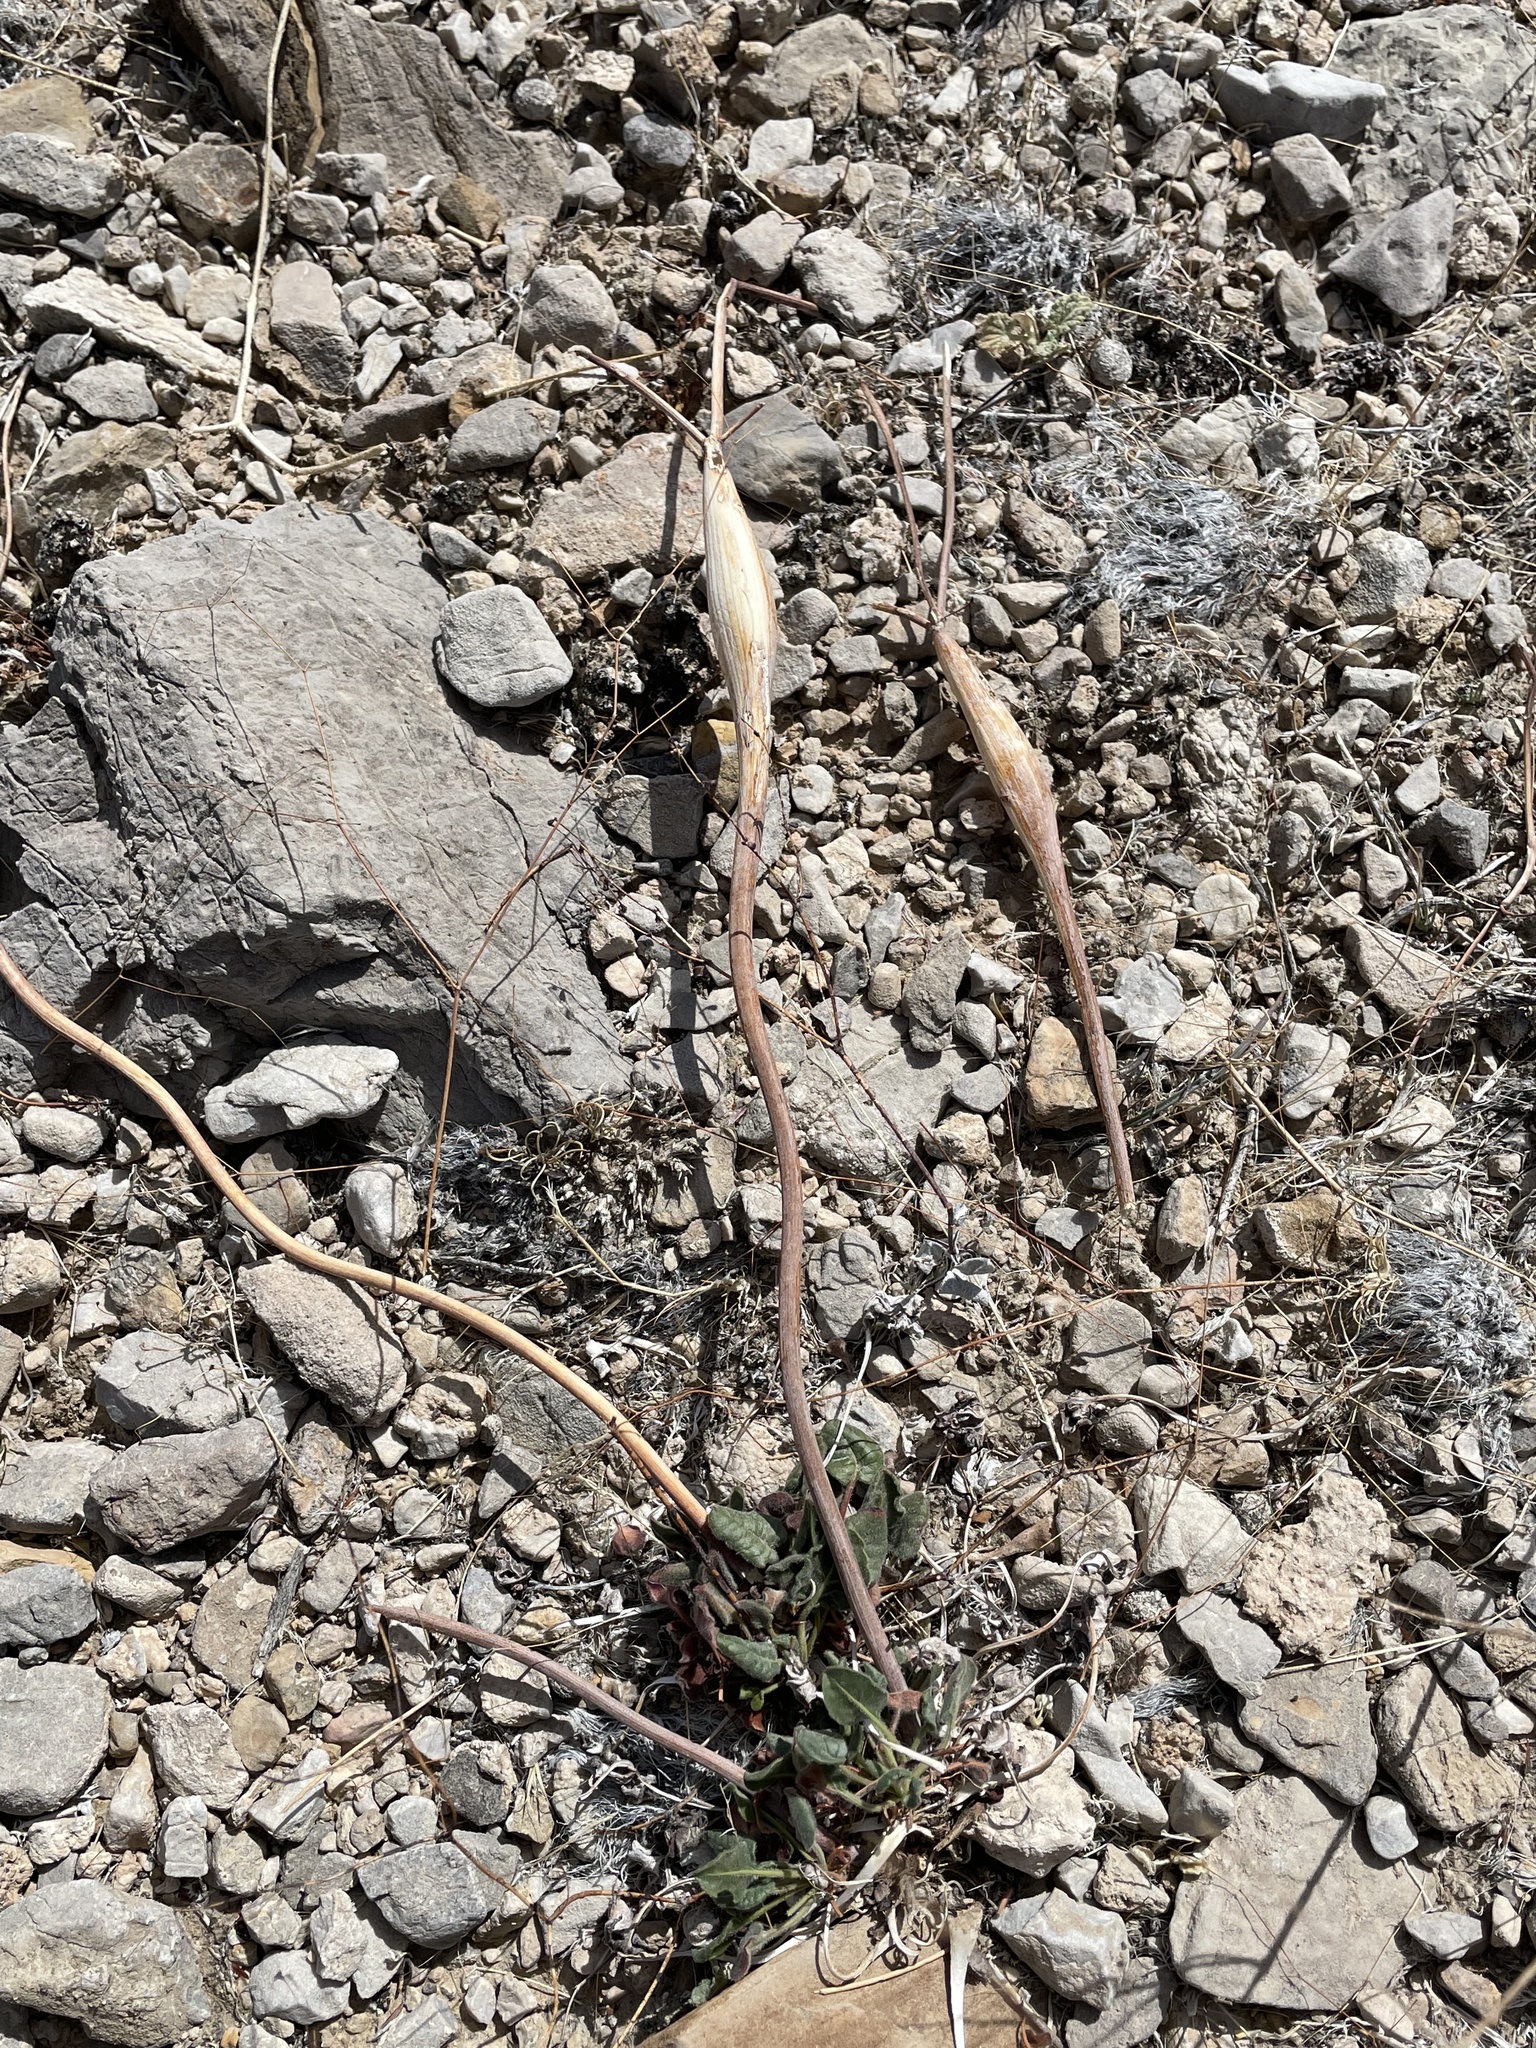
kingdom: Plantae
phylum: Tracheophyta
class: Magnoliopsida
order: Caryophyllales
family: Polygonaceae
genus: Eriogonum
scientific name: Eriogonum inflatum
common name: Desert trumpet
